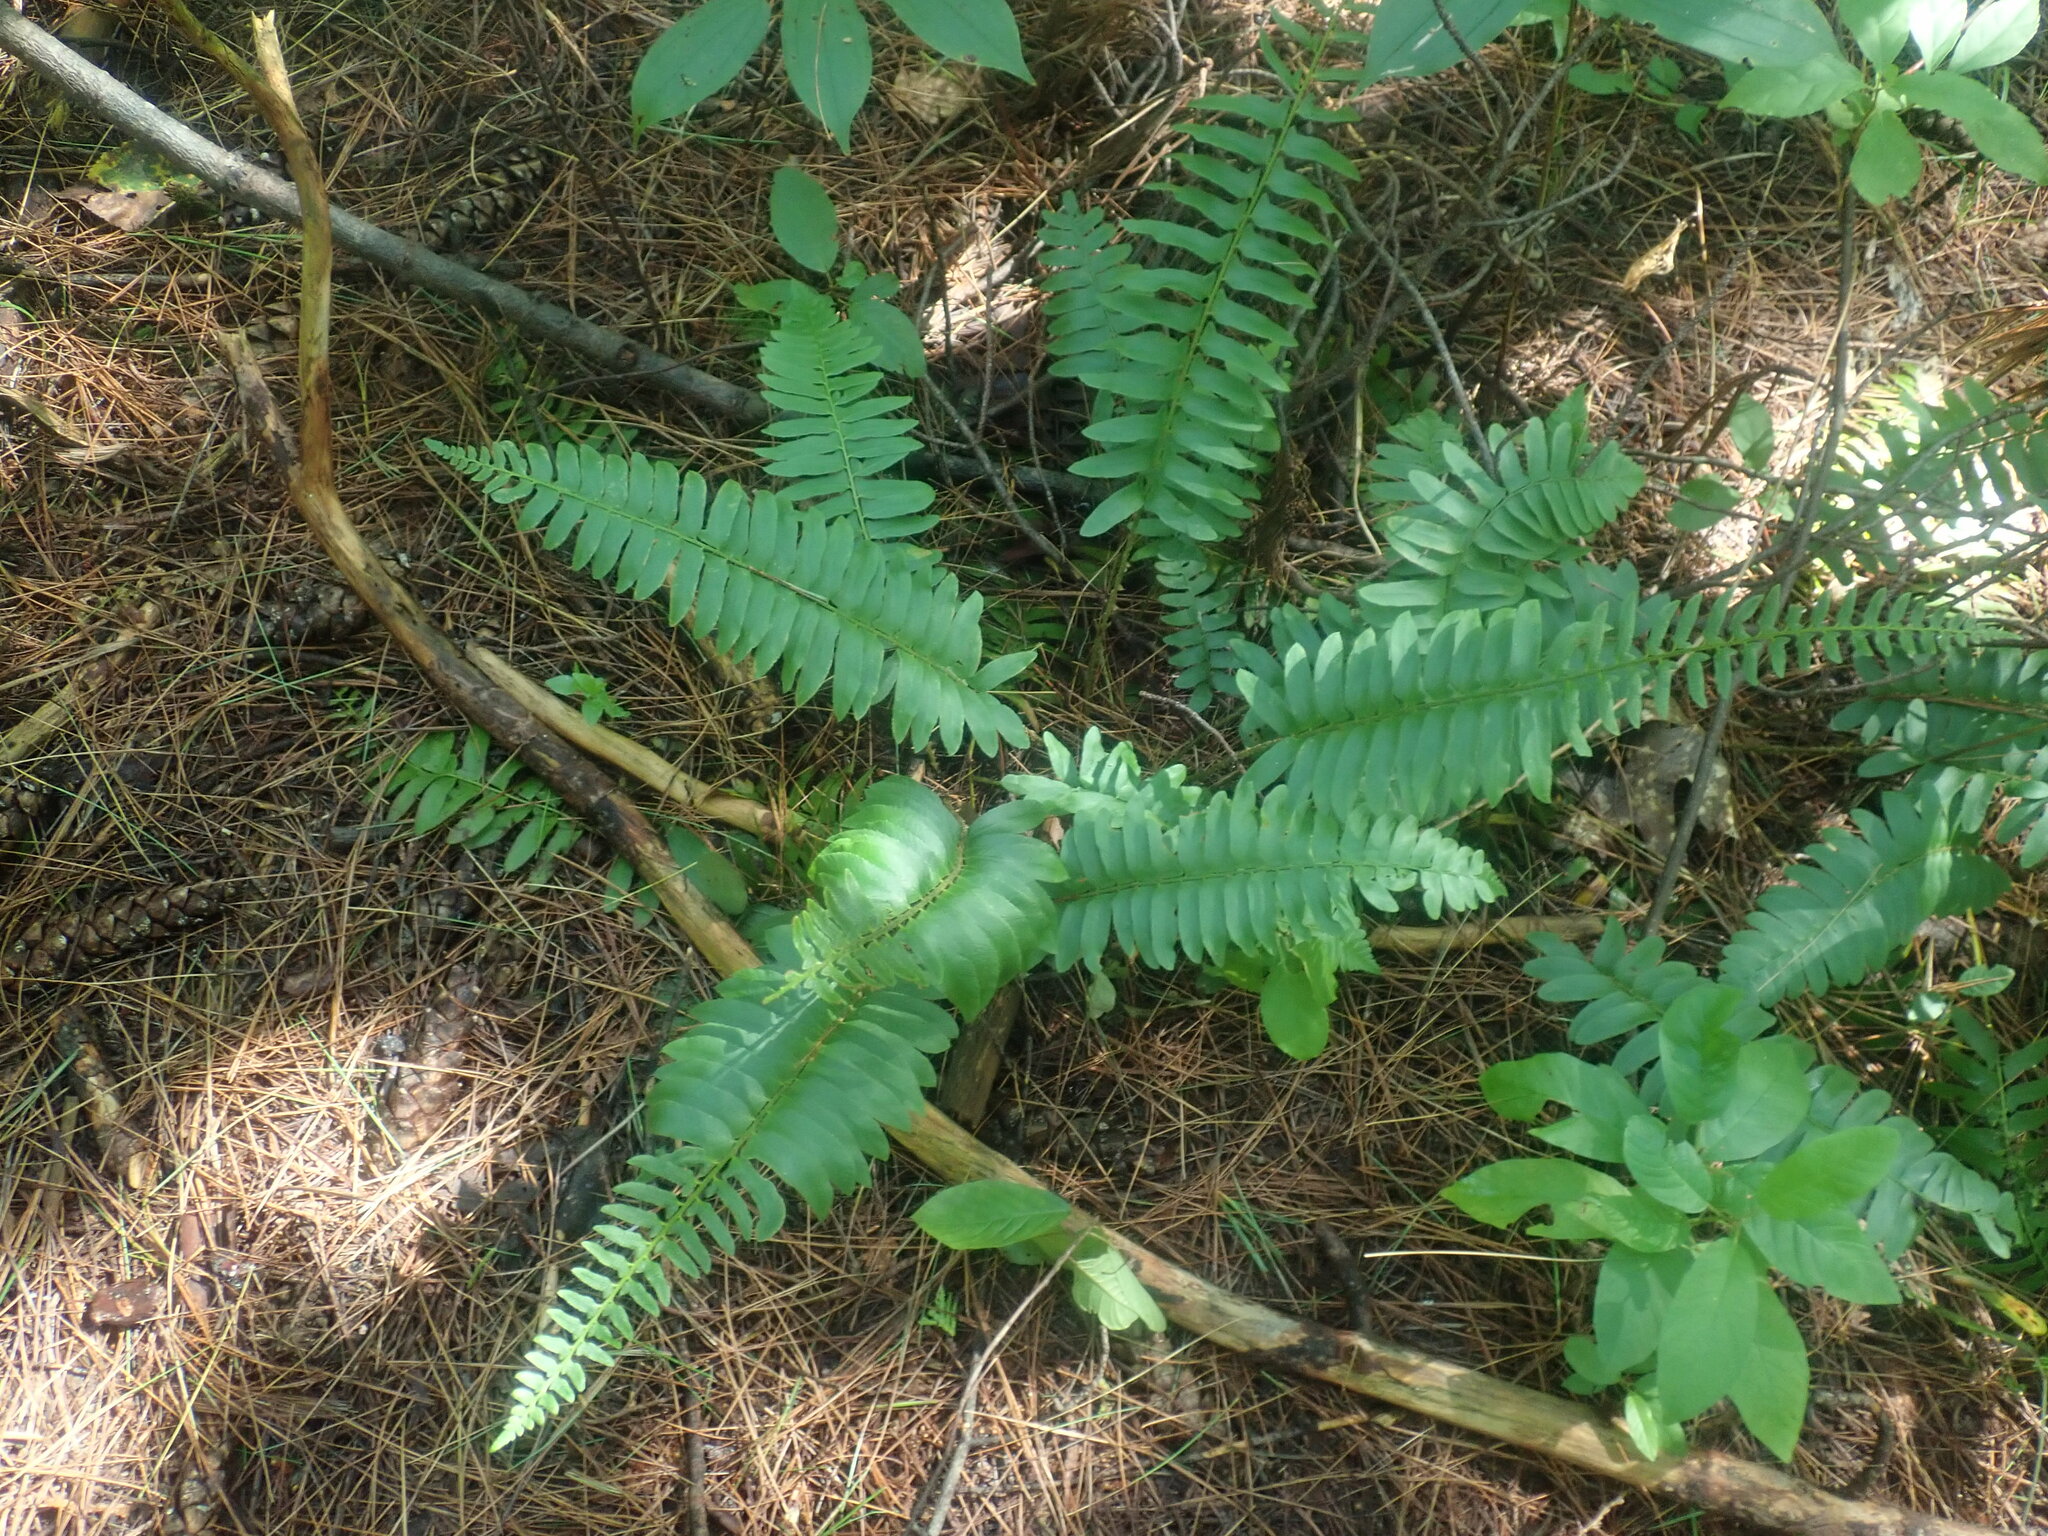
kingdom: Plantae
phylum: Tracheophyta
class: Polypodiopsida
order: Polypodiales
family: Dryopteridaceae
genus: Polystichum
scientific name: Polystichum acrostichoides
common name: Christmas fern
